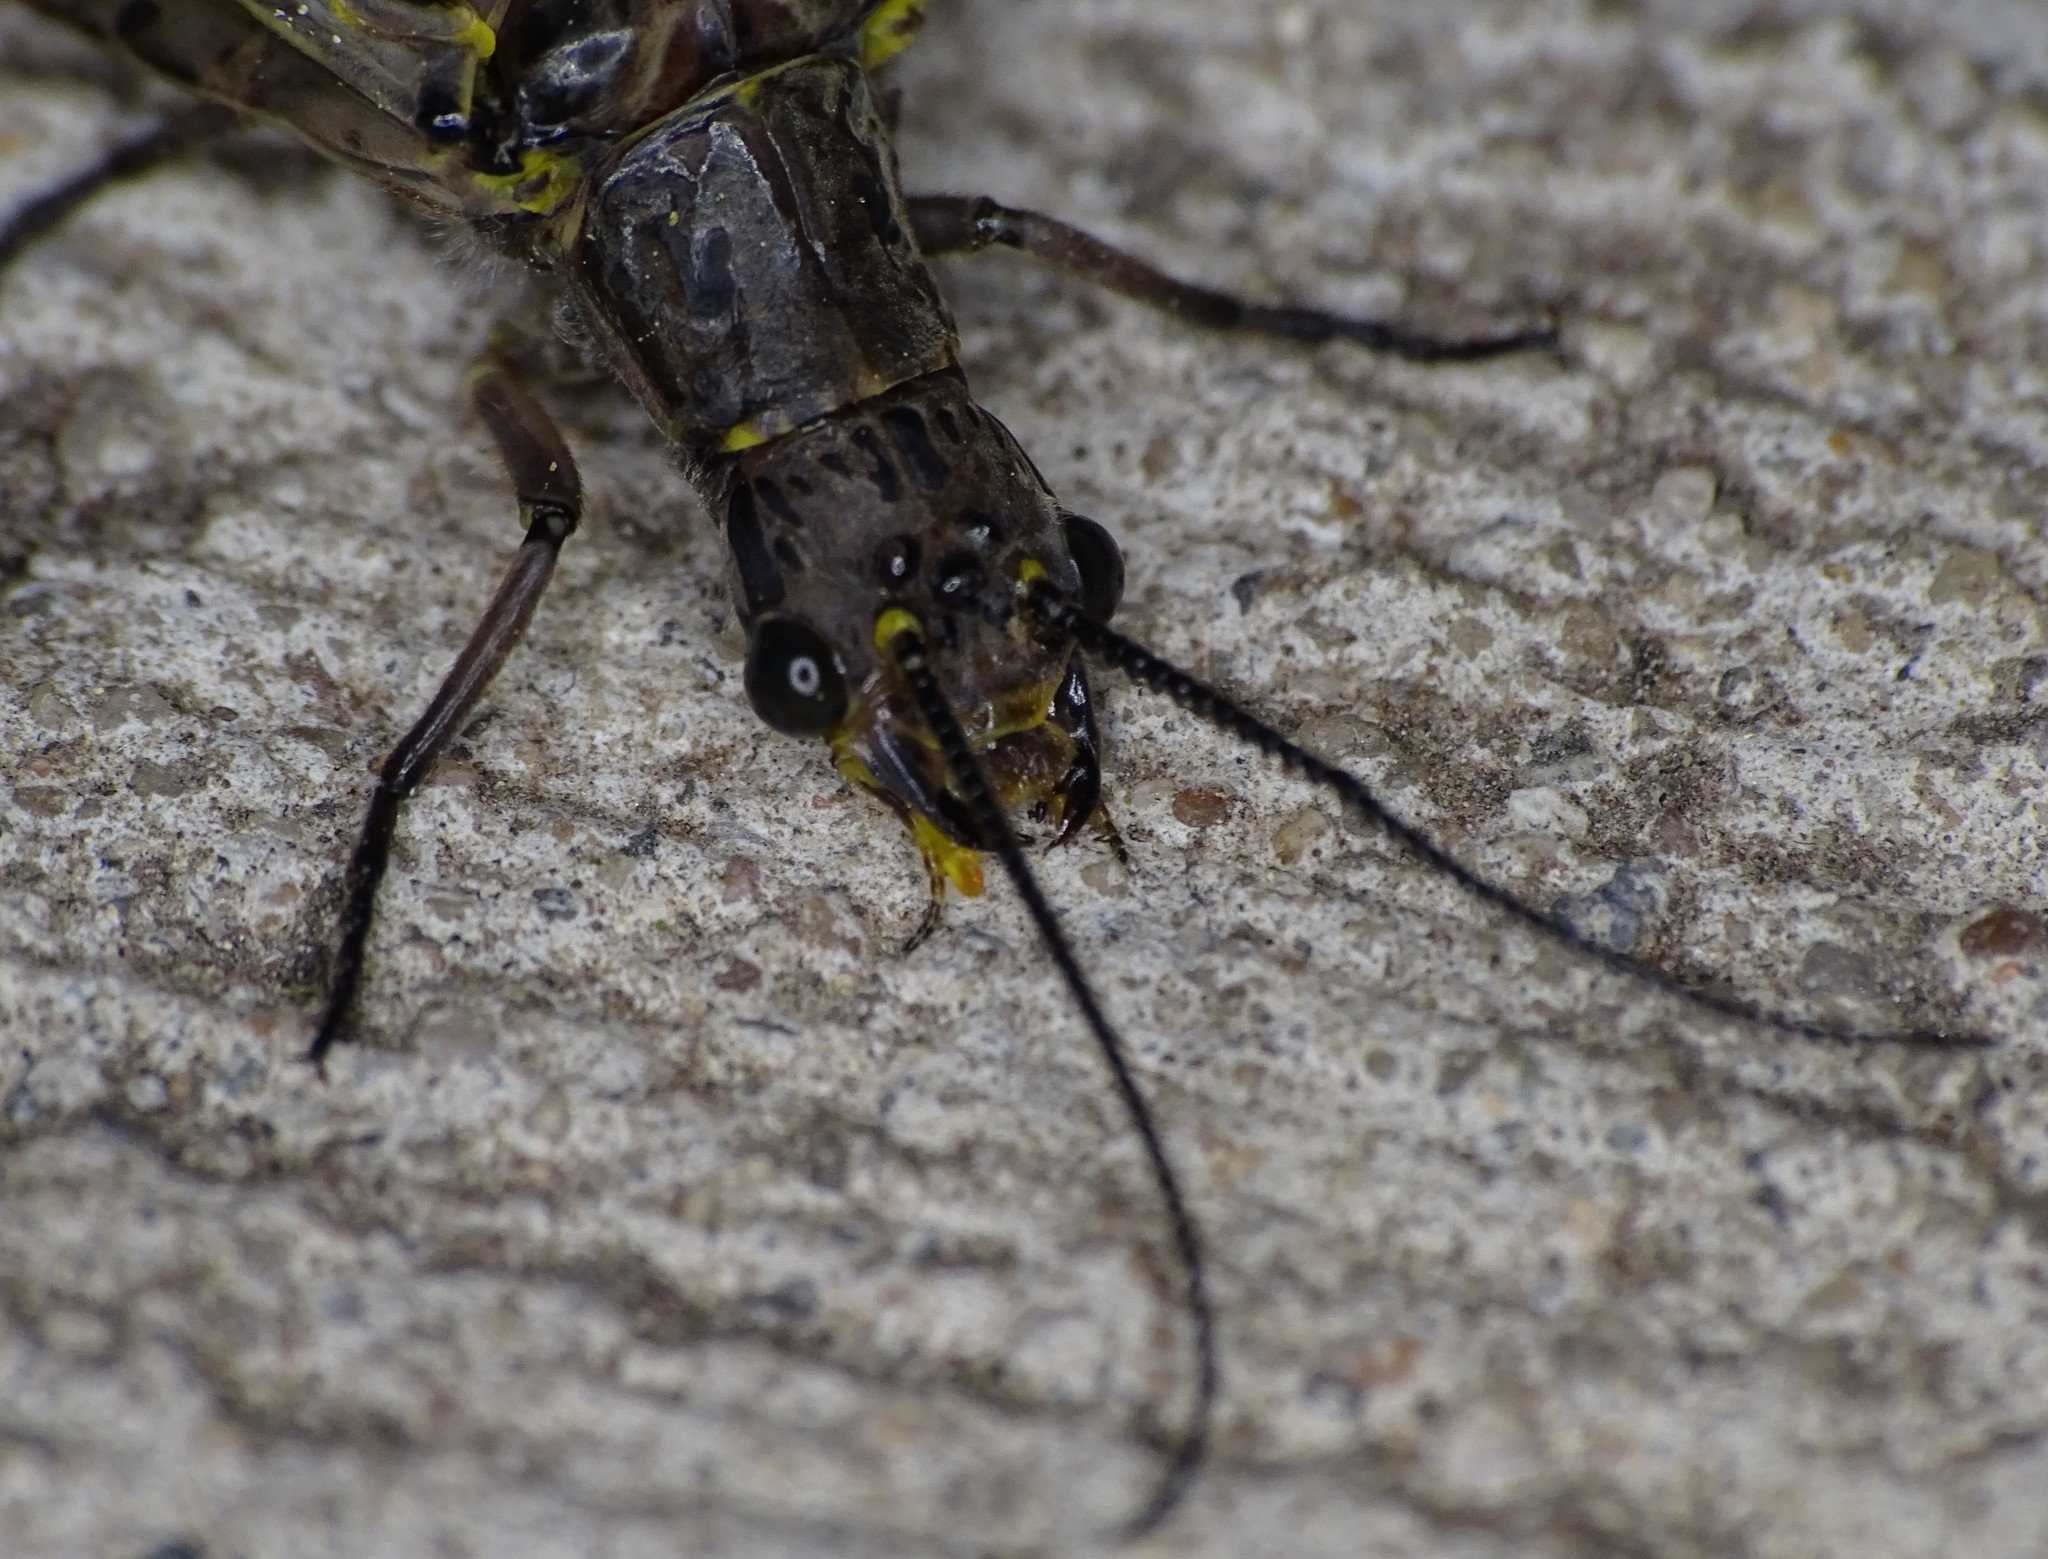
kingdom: Animalia
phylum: Arthropoda
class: Insecta
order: Megaloptera
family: Corydalidae
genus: Chauliodes
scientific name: Chauliodes rastricornis
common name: Spring fishfly
